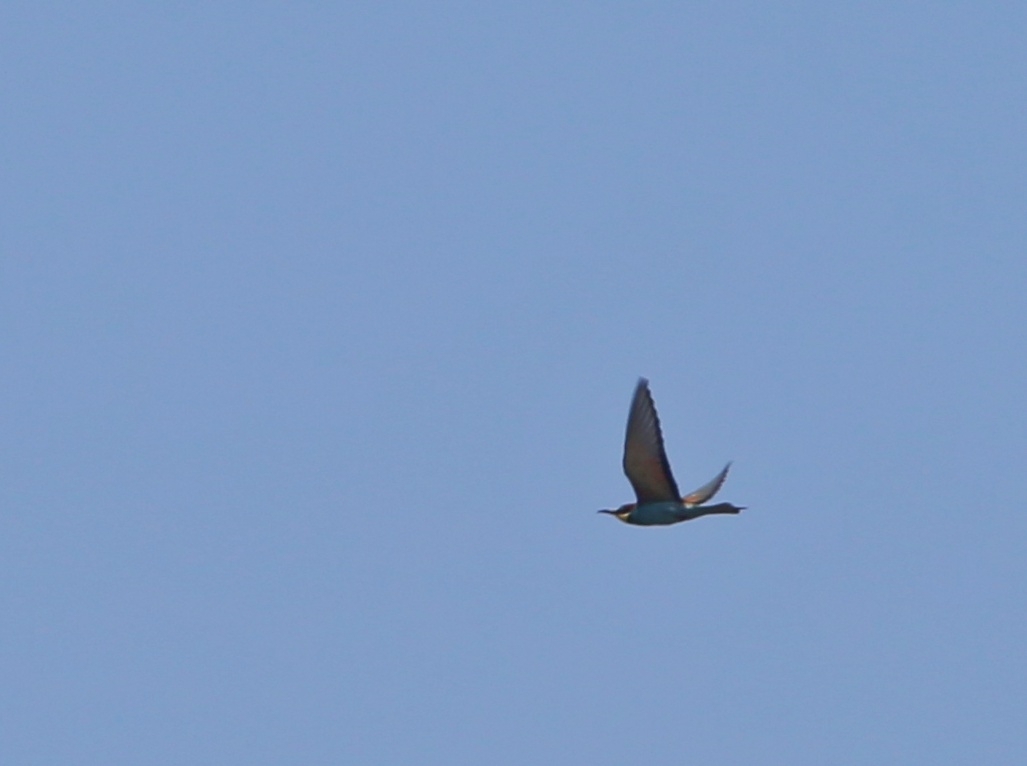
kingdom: Animalia
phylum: Chordata
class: Aves
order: Coraciiformes
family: Meropidae
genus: Merops
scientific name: Merops apiaster
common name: European bee-eater
